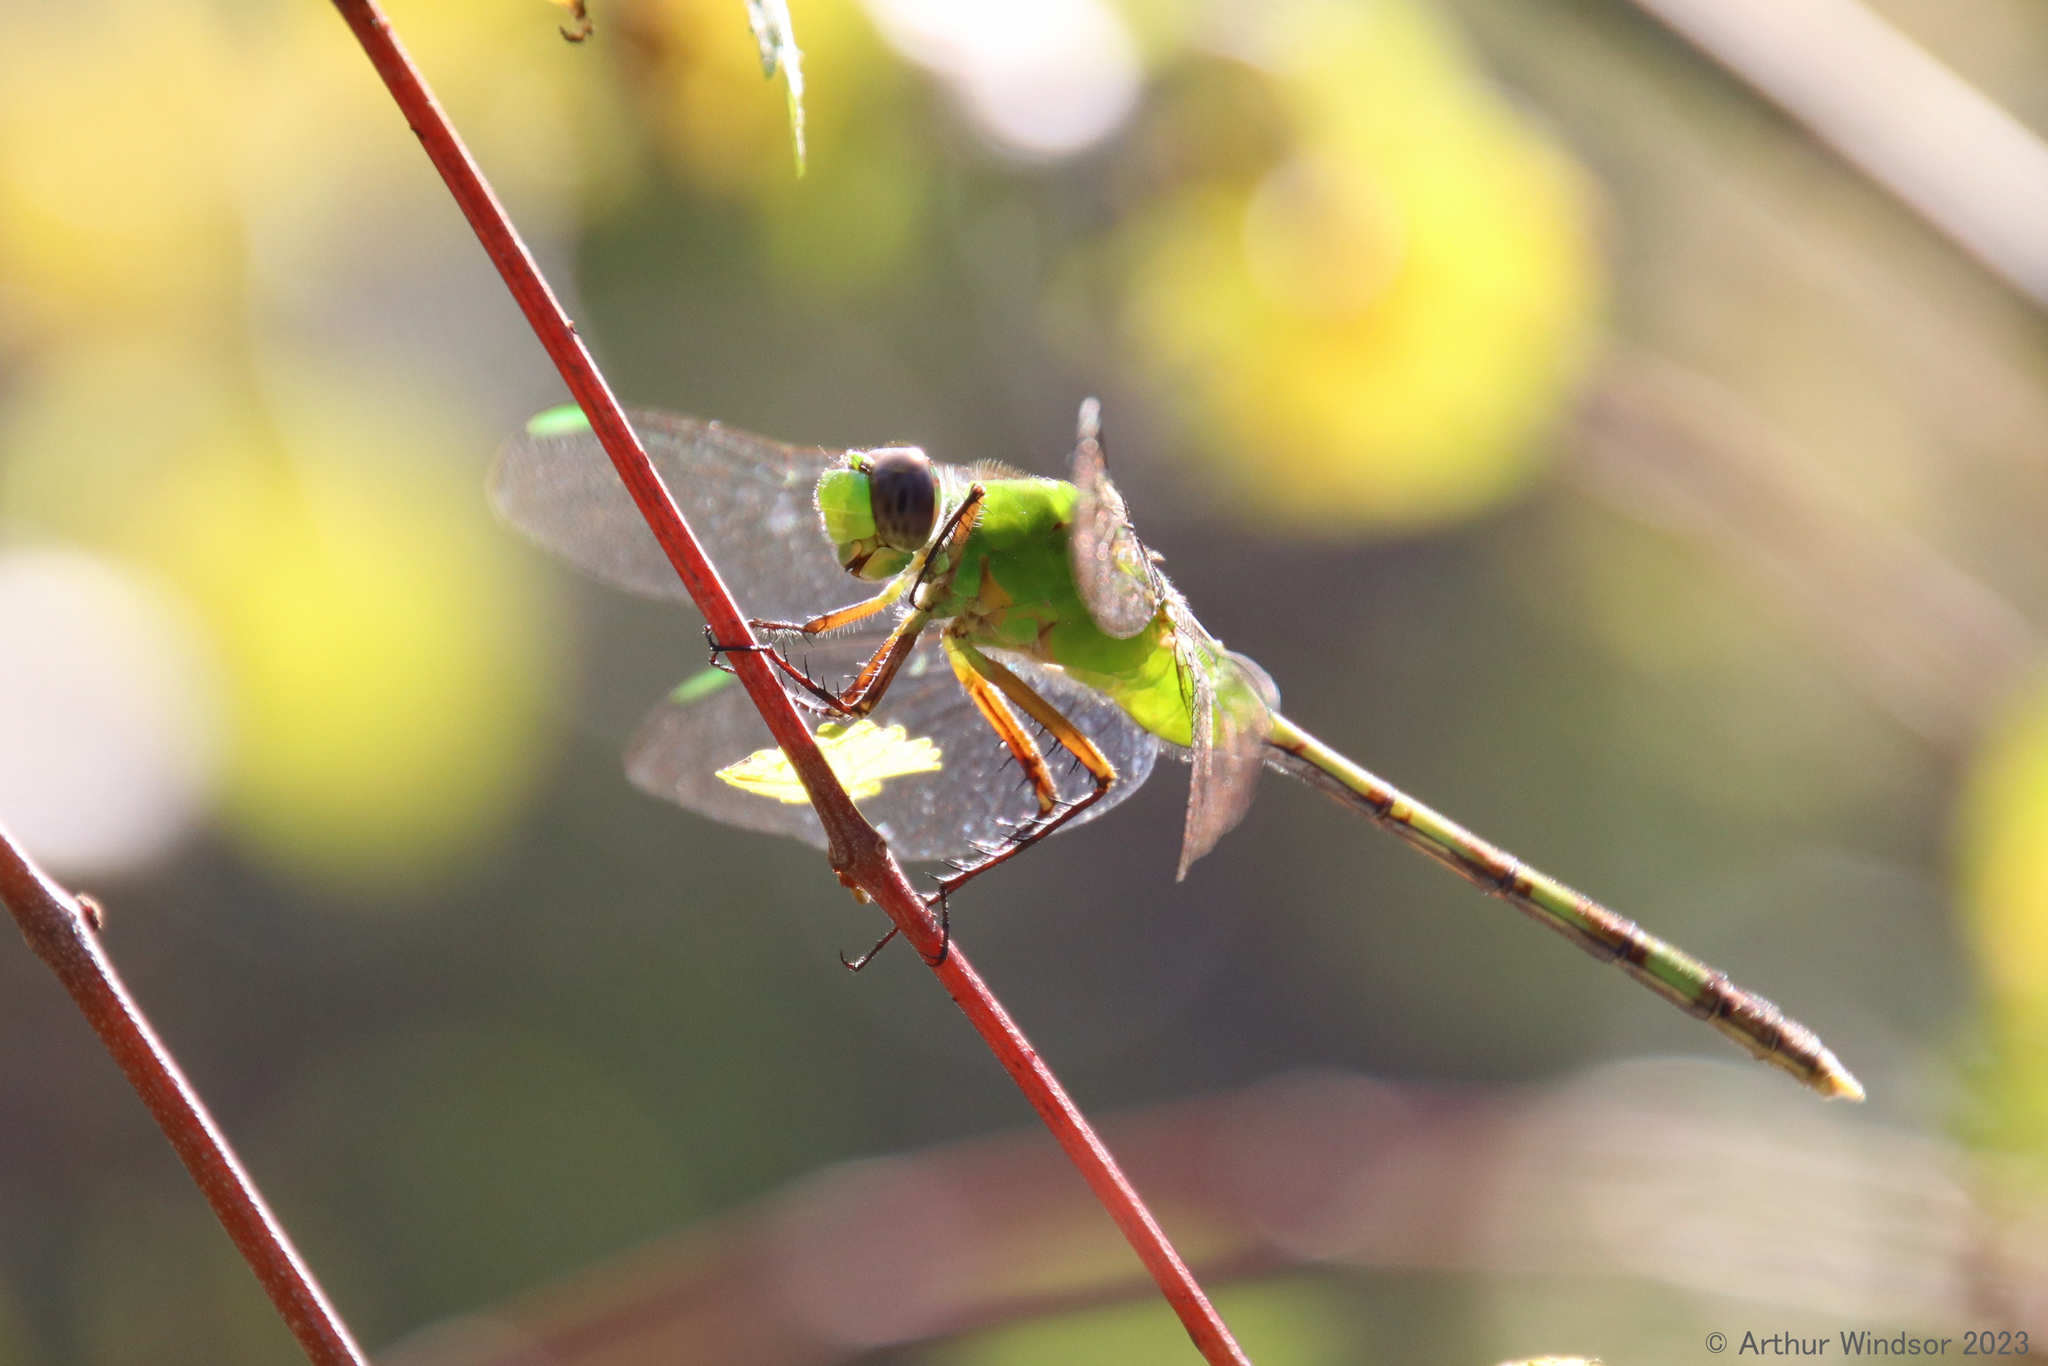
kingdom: Animalia
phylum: Arthropoda
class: Insecta
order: Odonata
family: Libellulidae
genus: Erythemis
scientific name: Erythemis vesiculosa
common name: Great pondhawk
